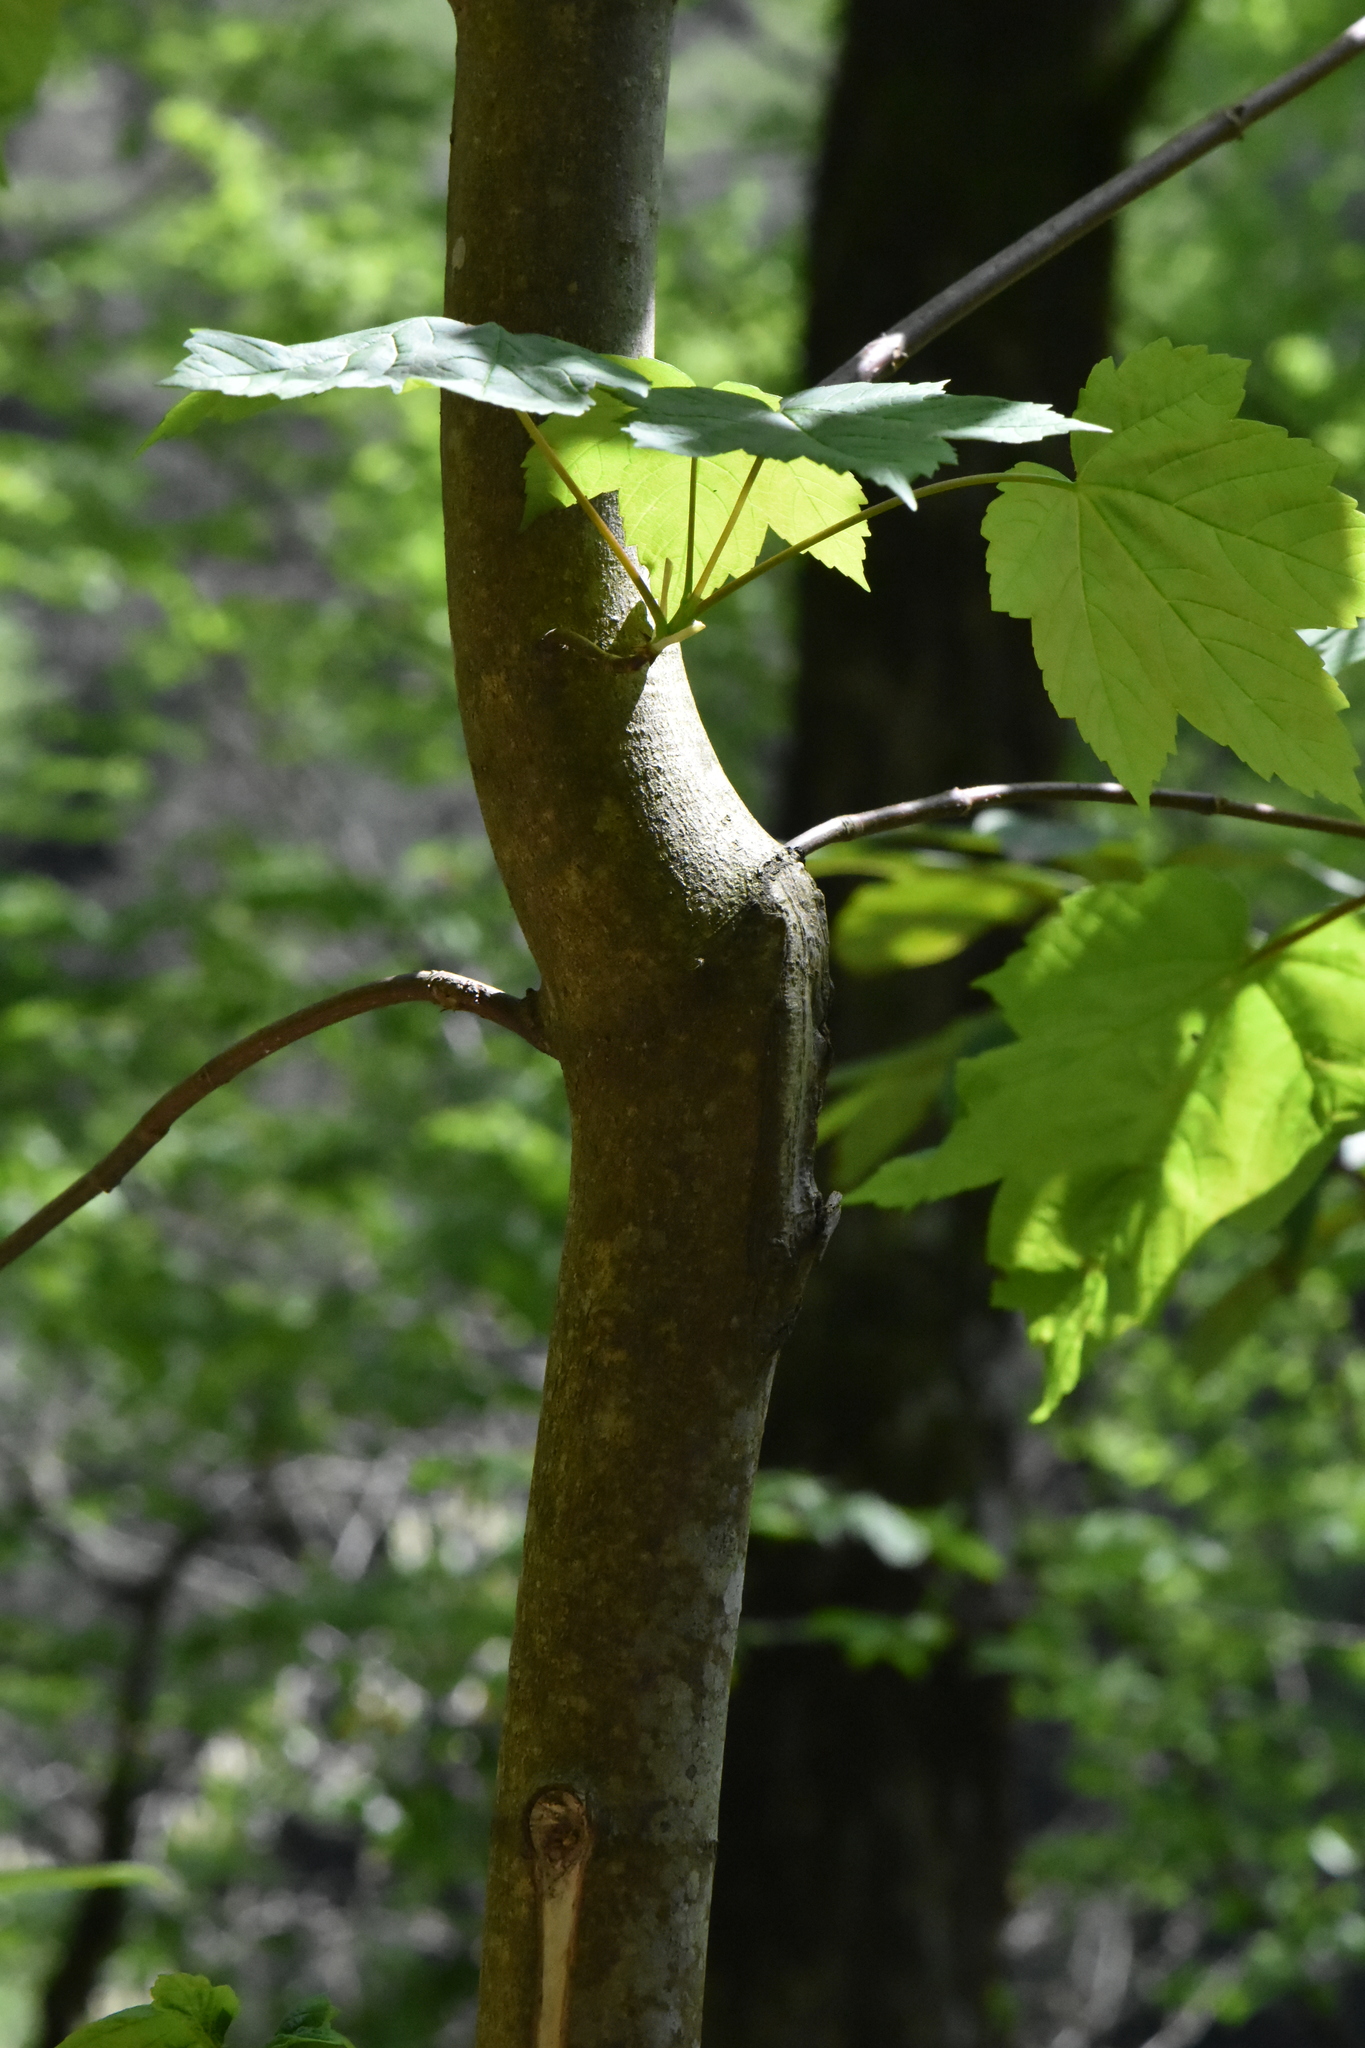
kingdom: Plantae
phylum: Tracheophyta
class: Magnoliopsida
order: Sapindales
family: Sapindaceae
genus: Acer
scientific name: Acer pseudoplatanus
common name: Sycamore
